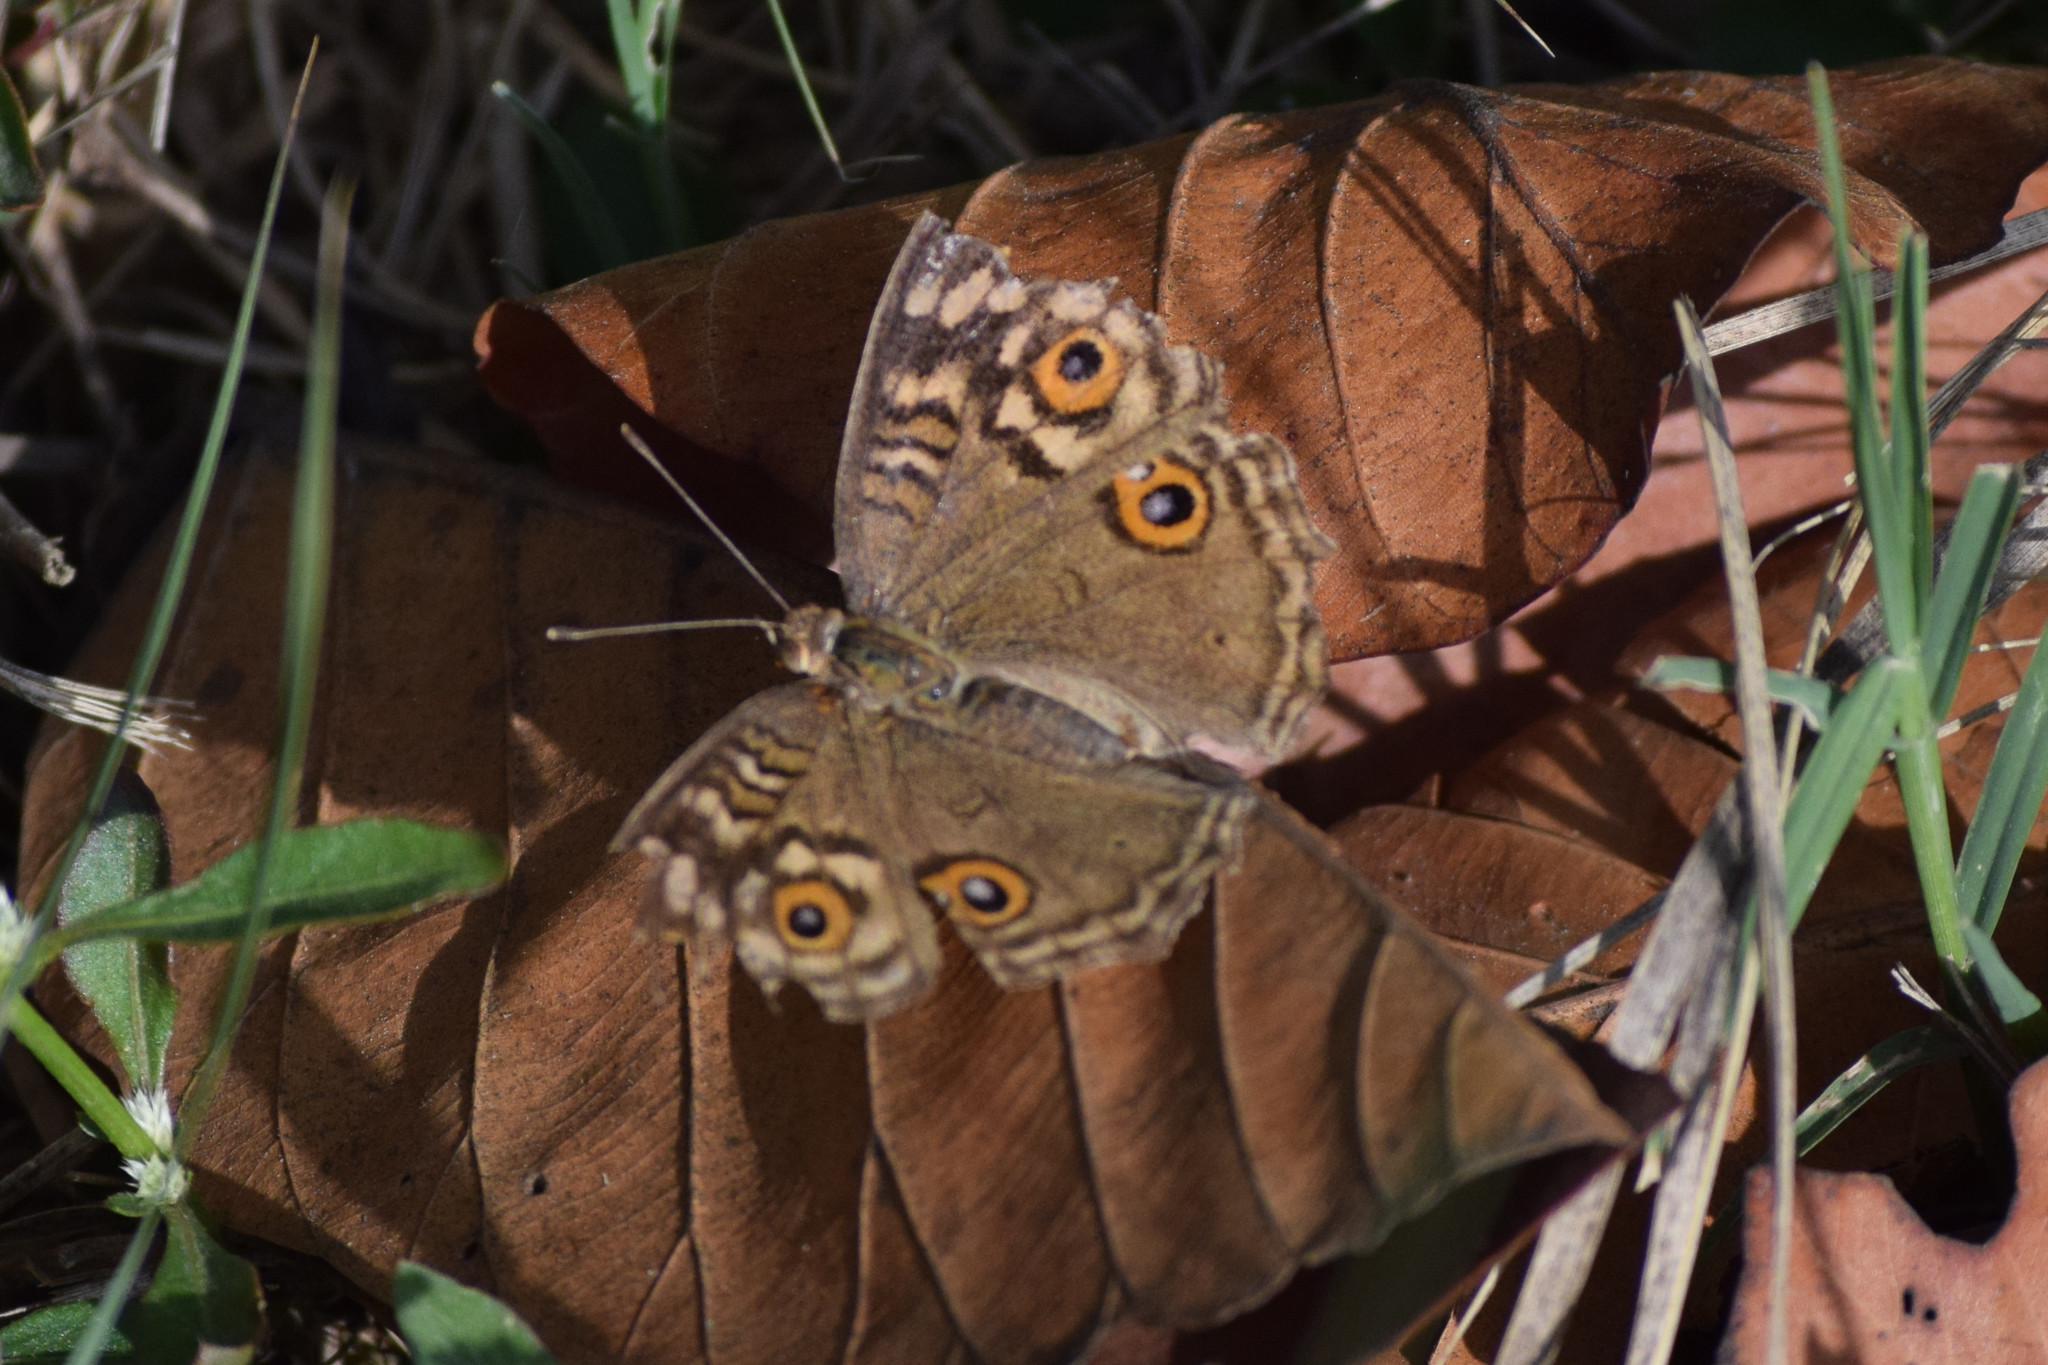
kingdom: Animalia
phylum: Arthropoda
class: Insecta
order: Lepidoptera
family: Nymphalidae
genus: Junonia
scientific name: Junonia lemonias
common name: Lemon pansy
